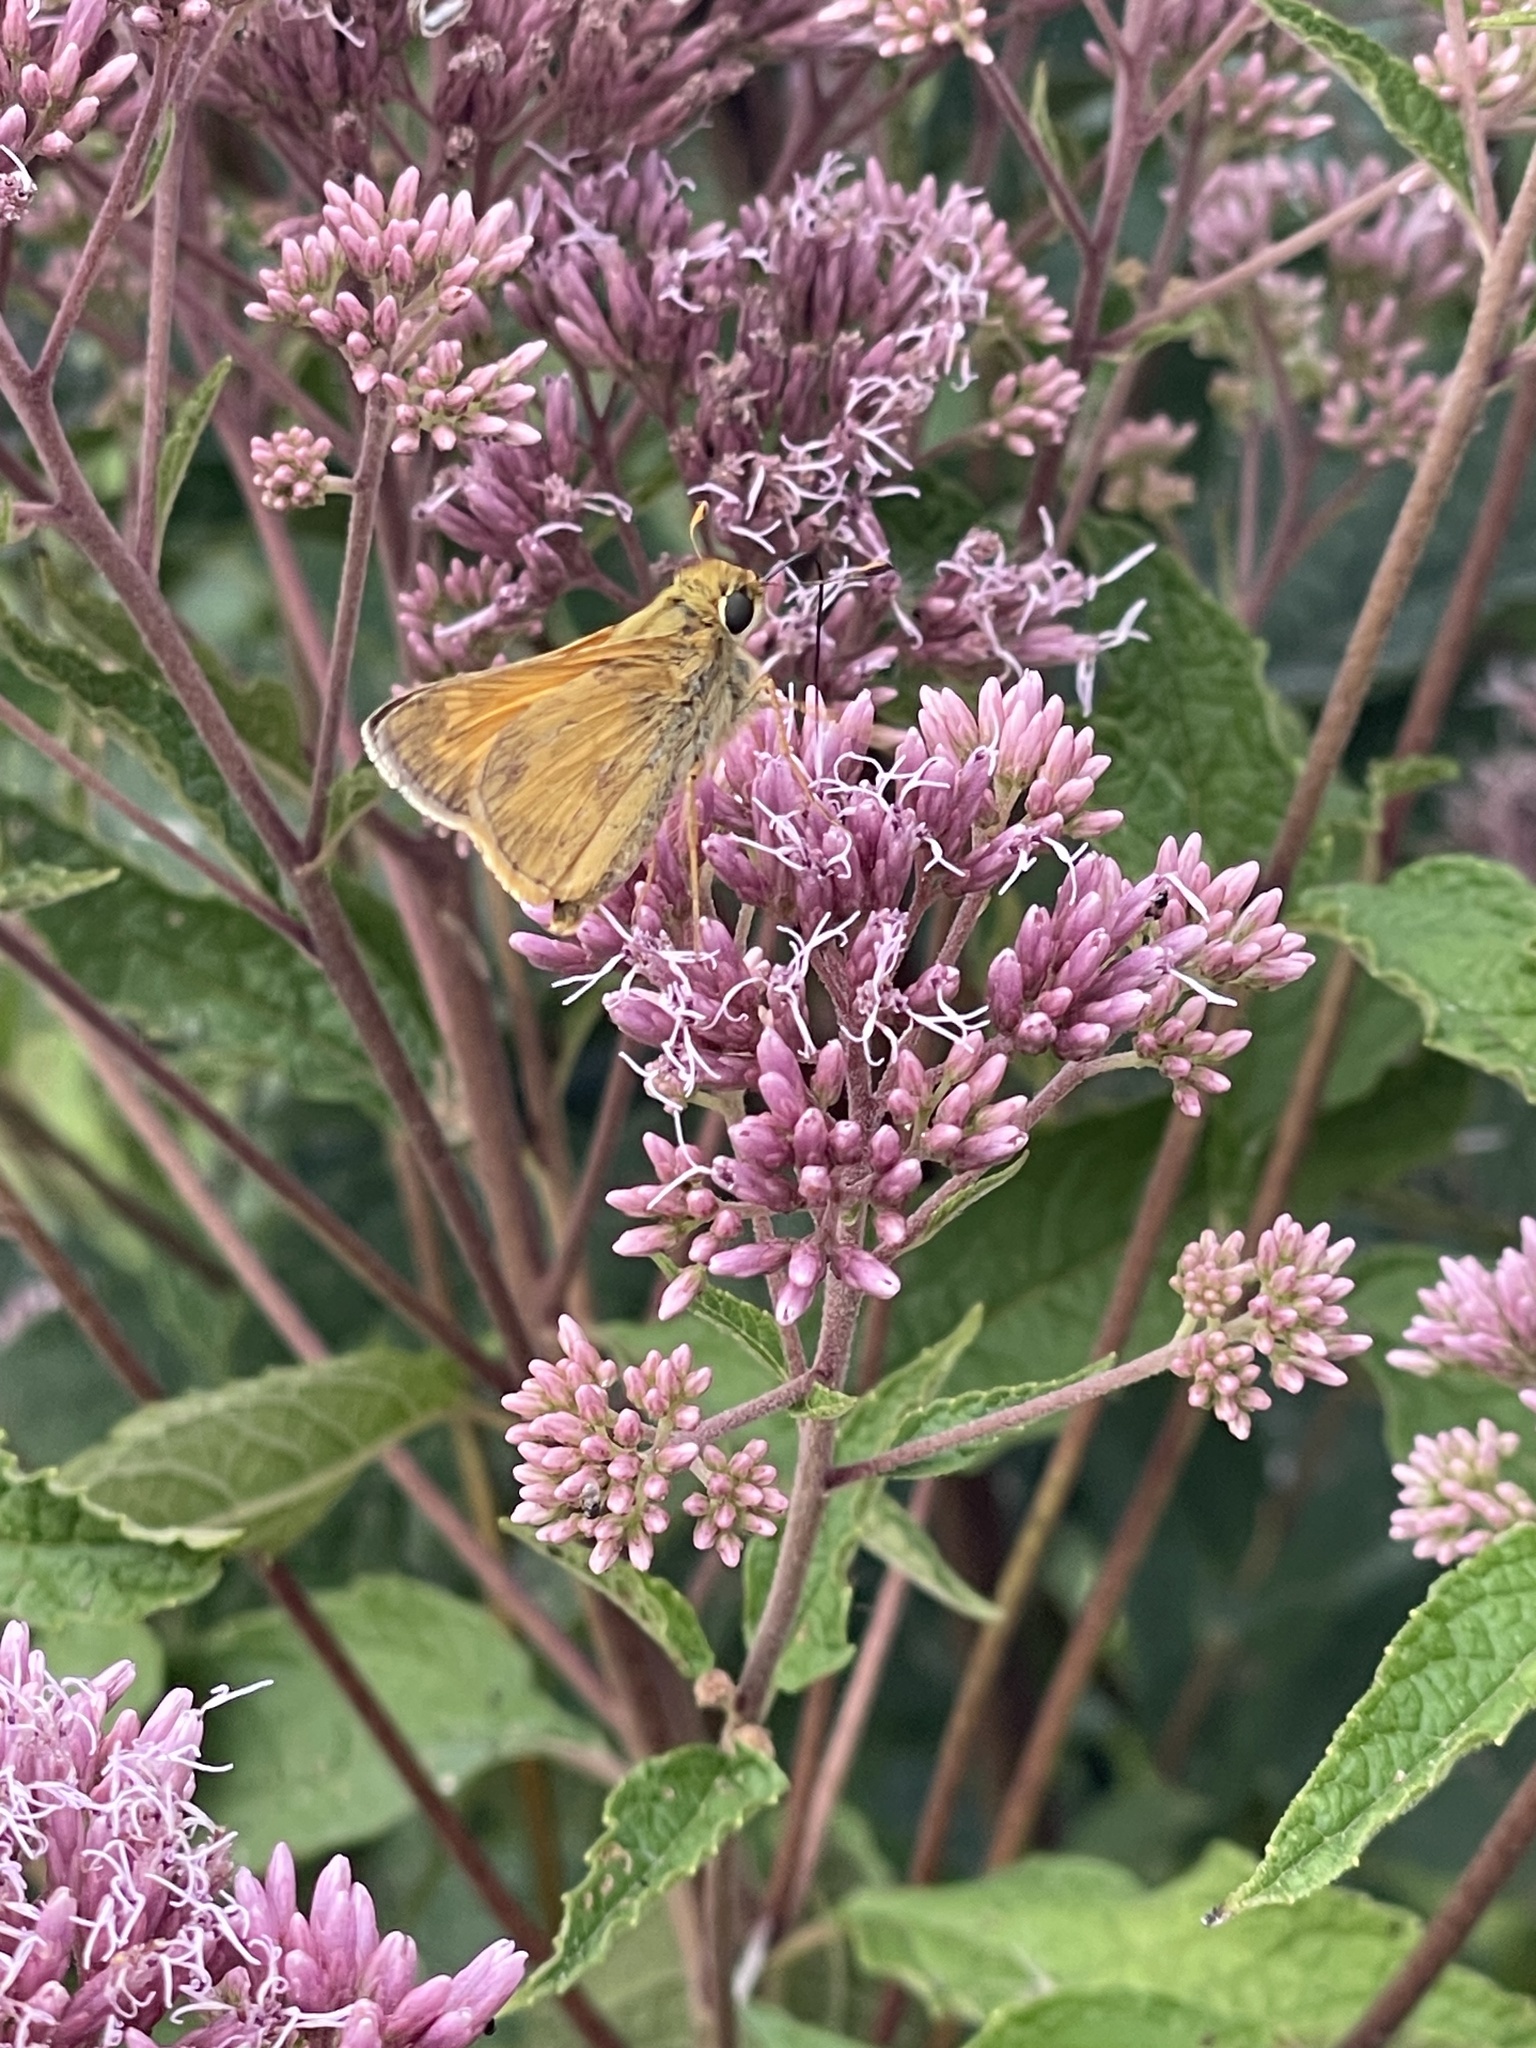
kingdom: Animalia
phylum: Arthropoda
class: Insecta
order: Lepidoptera
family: Hesperiidae
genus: Atalopedes
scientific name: Atalopedes
